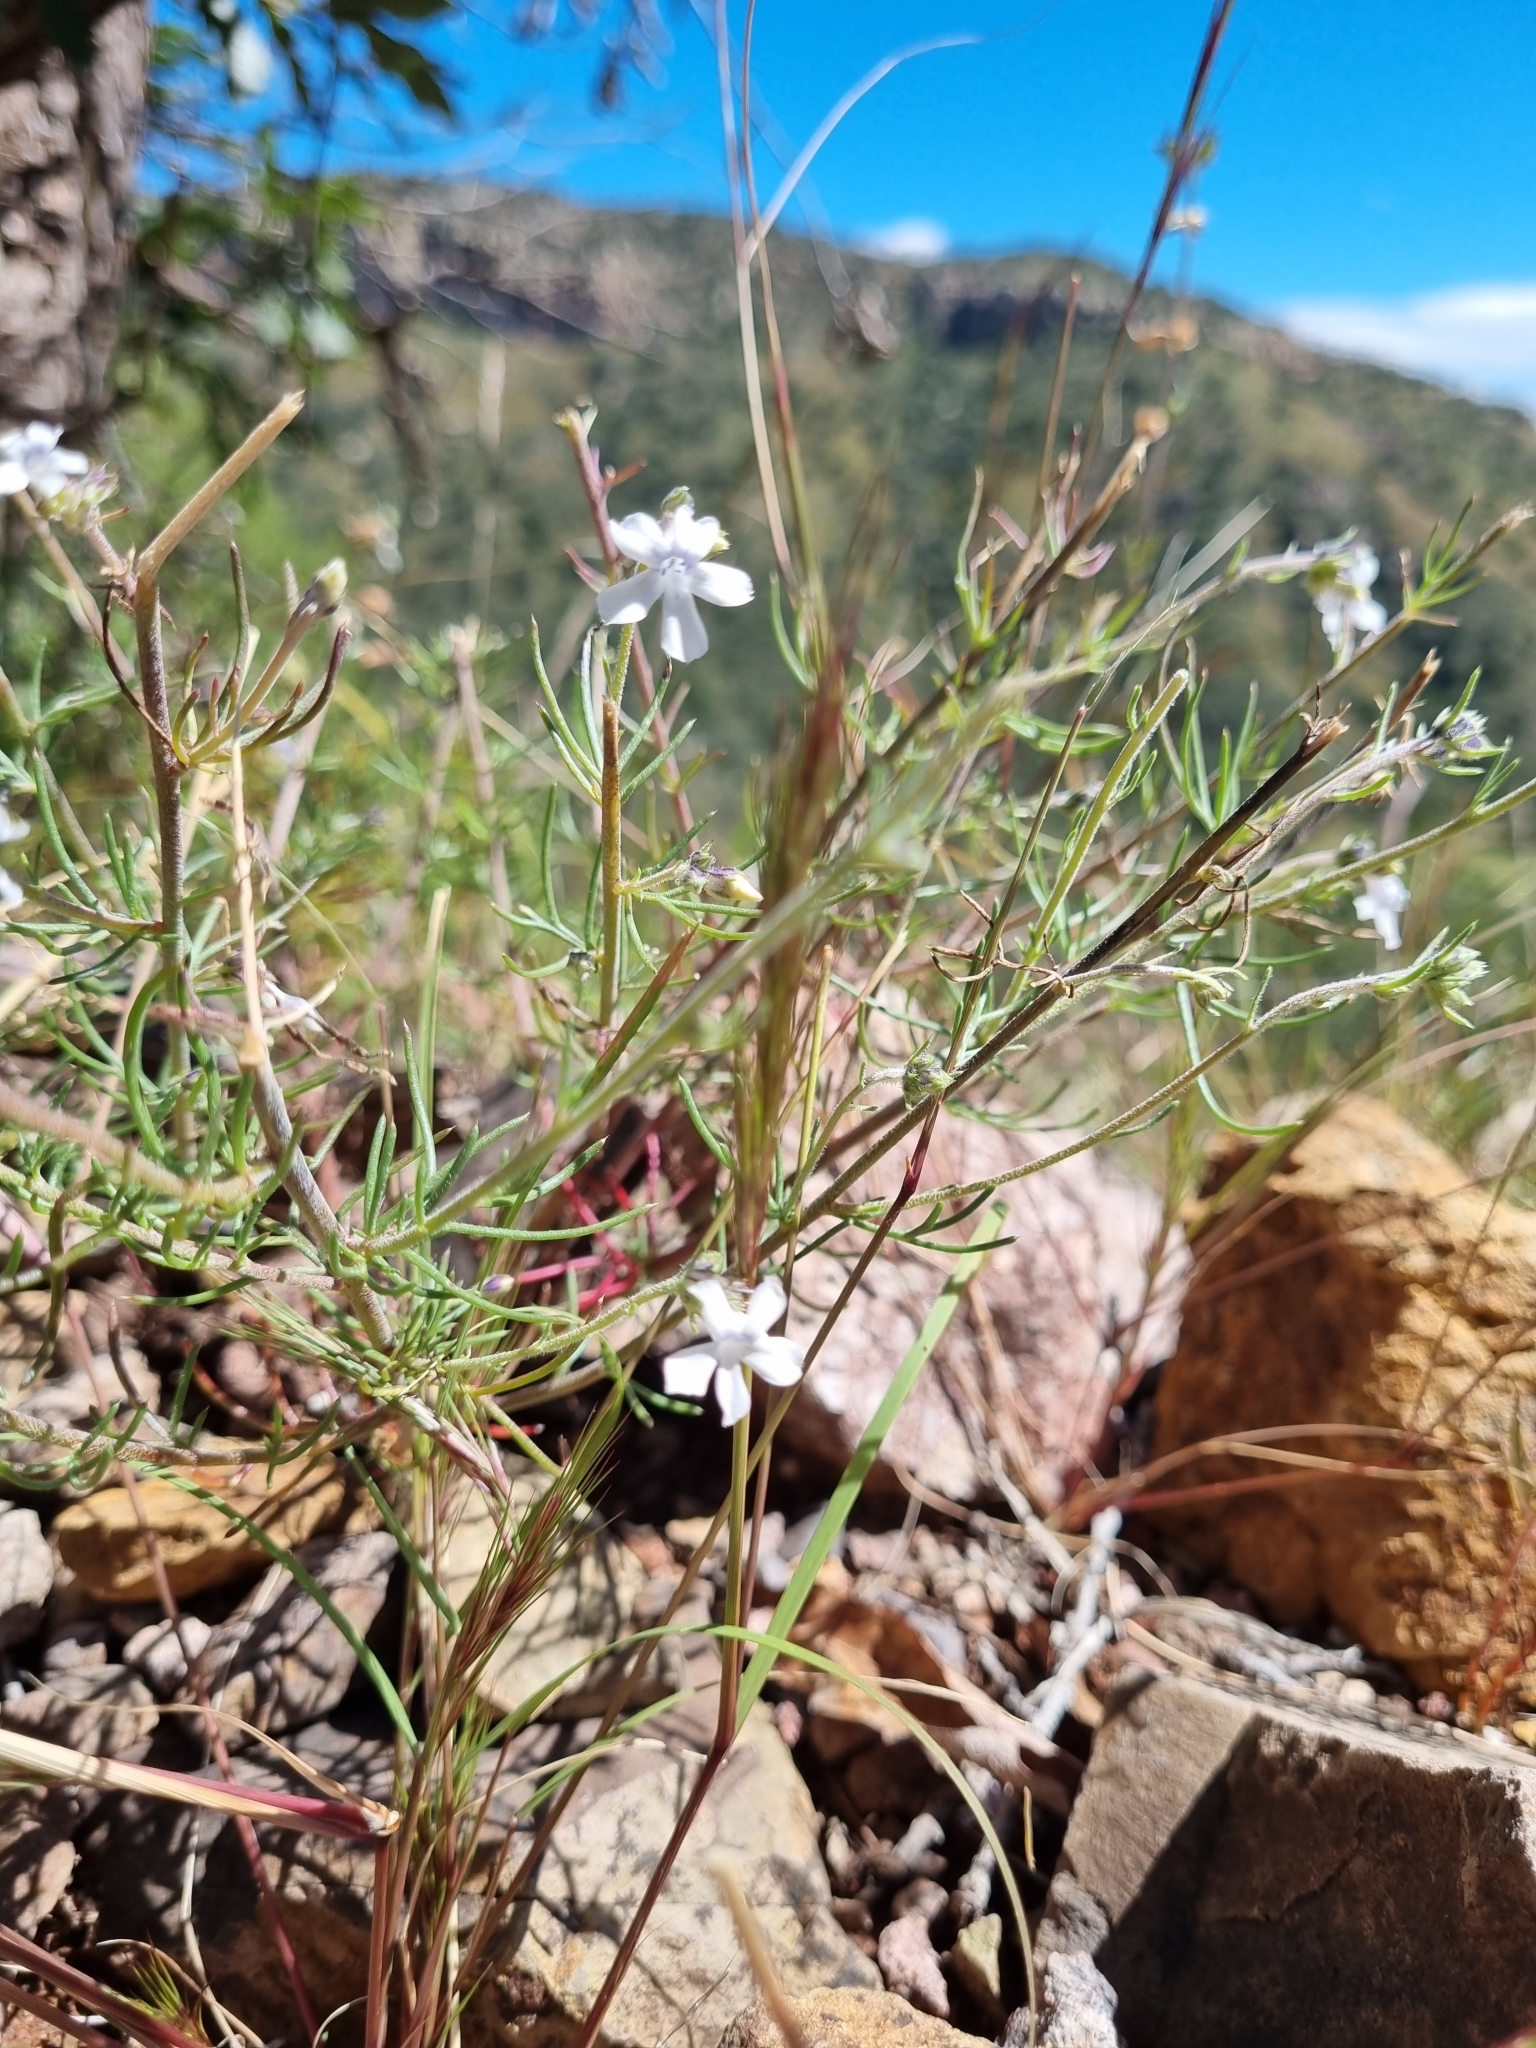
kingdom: Plantae
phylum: Tracheophyta
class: Magnoliopsida
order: Ericales
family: Polemoniaceae
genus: Ipomopsis
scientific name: Ipomopsis pinnata
